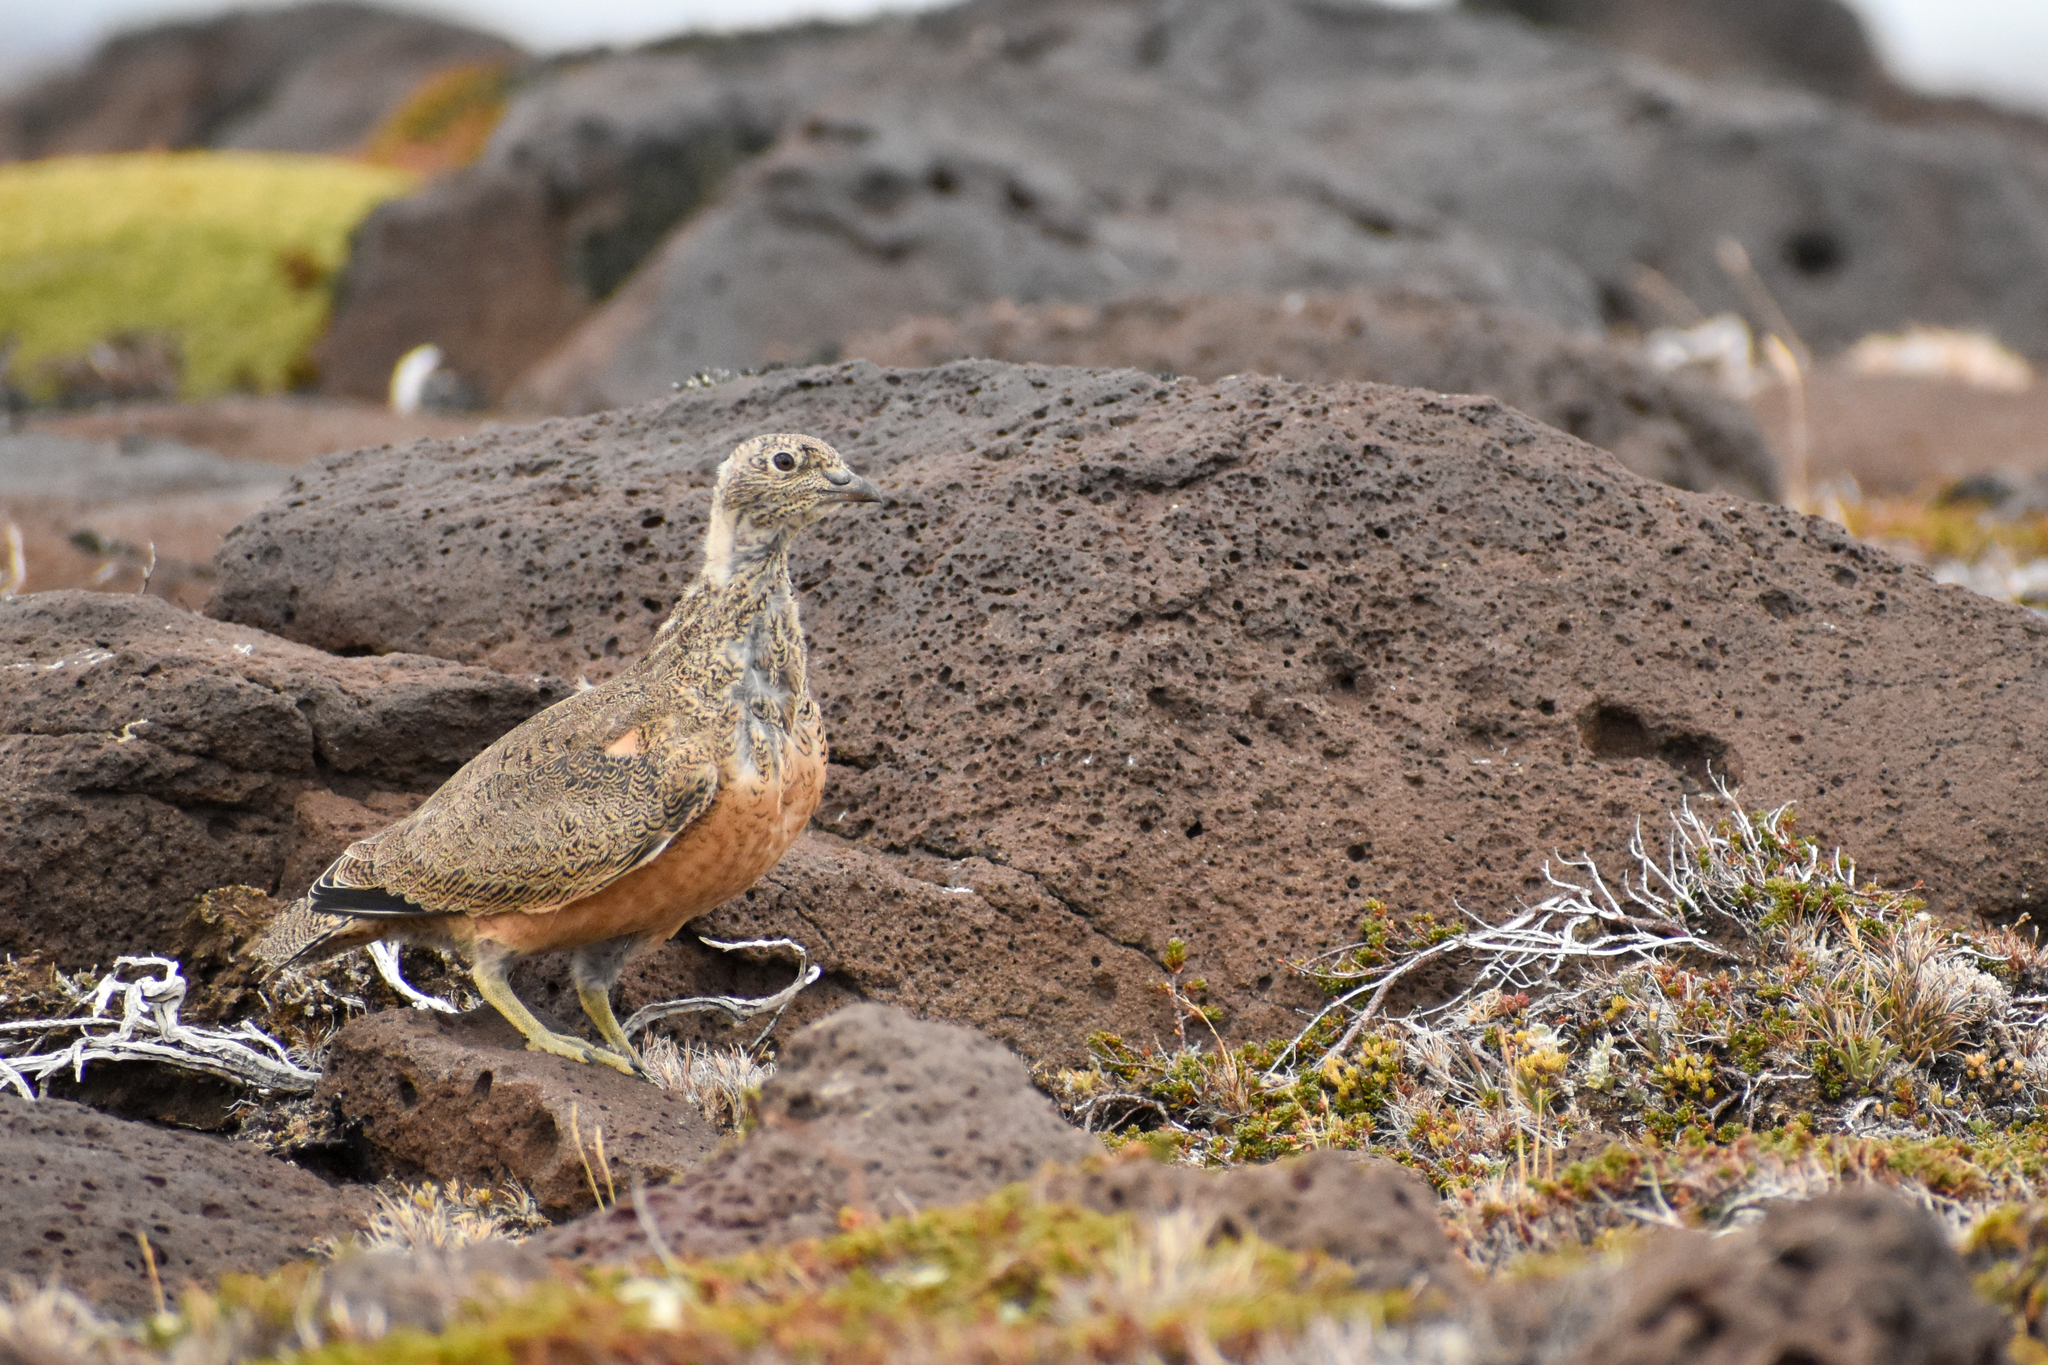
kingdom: Animalia
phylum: Chordata
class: Aves
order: Charadriiformes
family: Thinocoridae
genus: Attagis
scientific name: Attagis gayi
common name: Rufous-bellied seedsnipe
